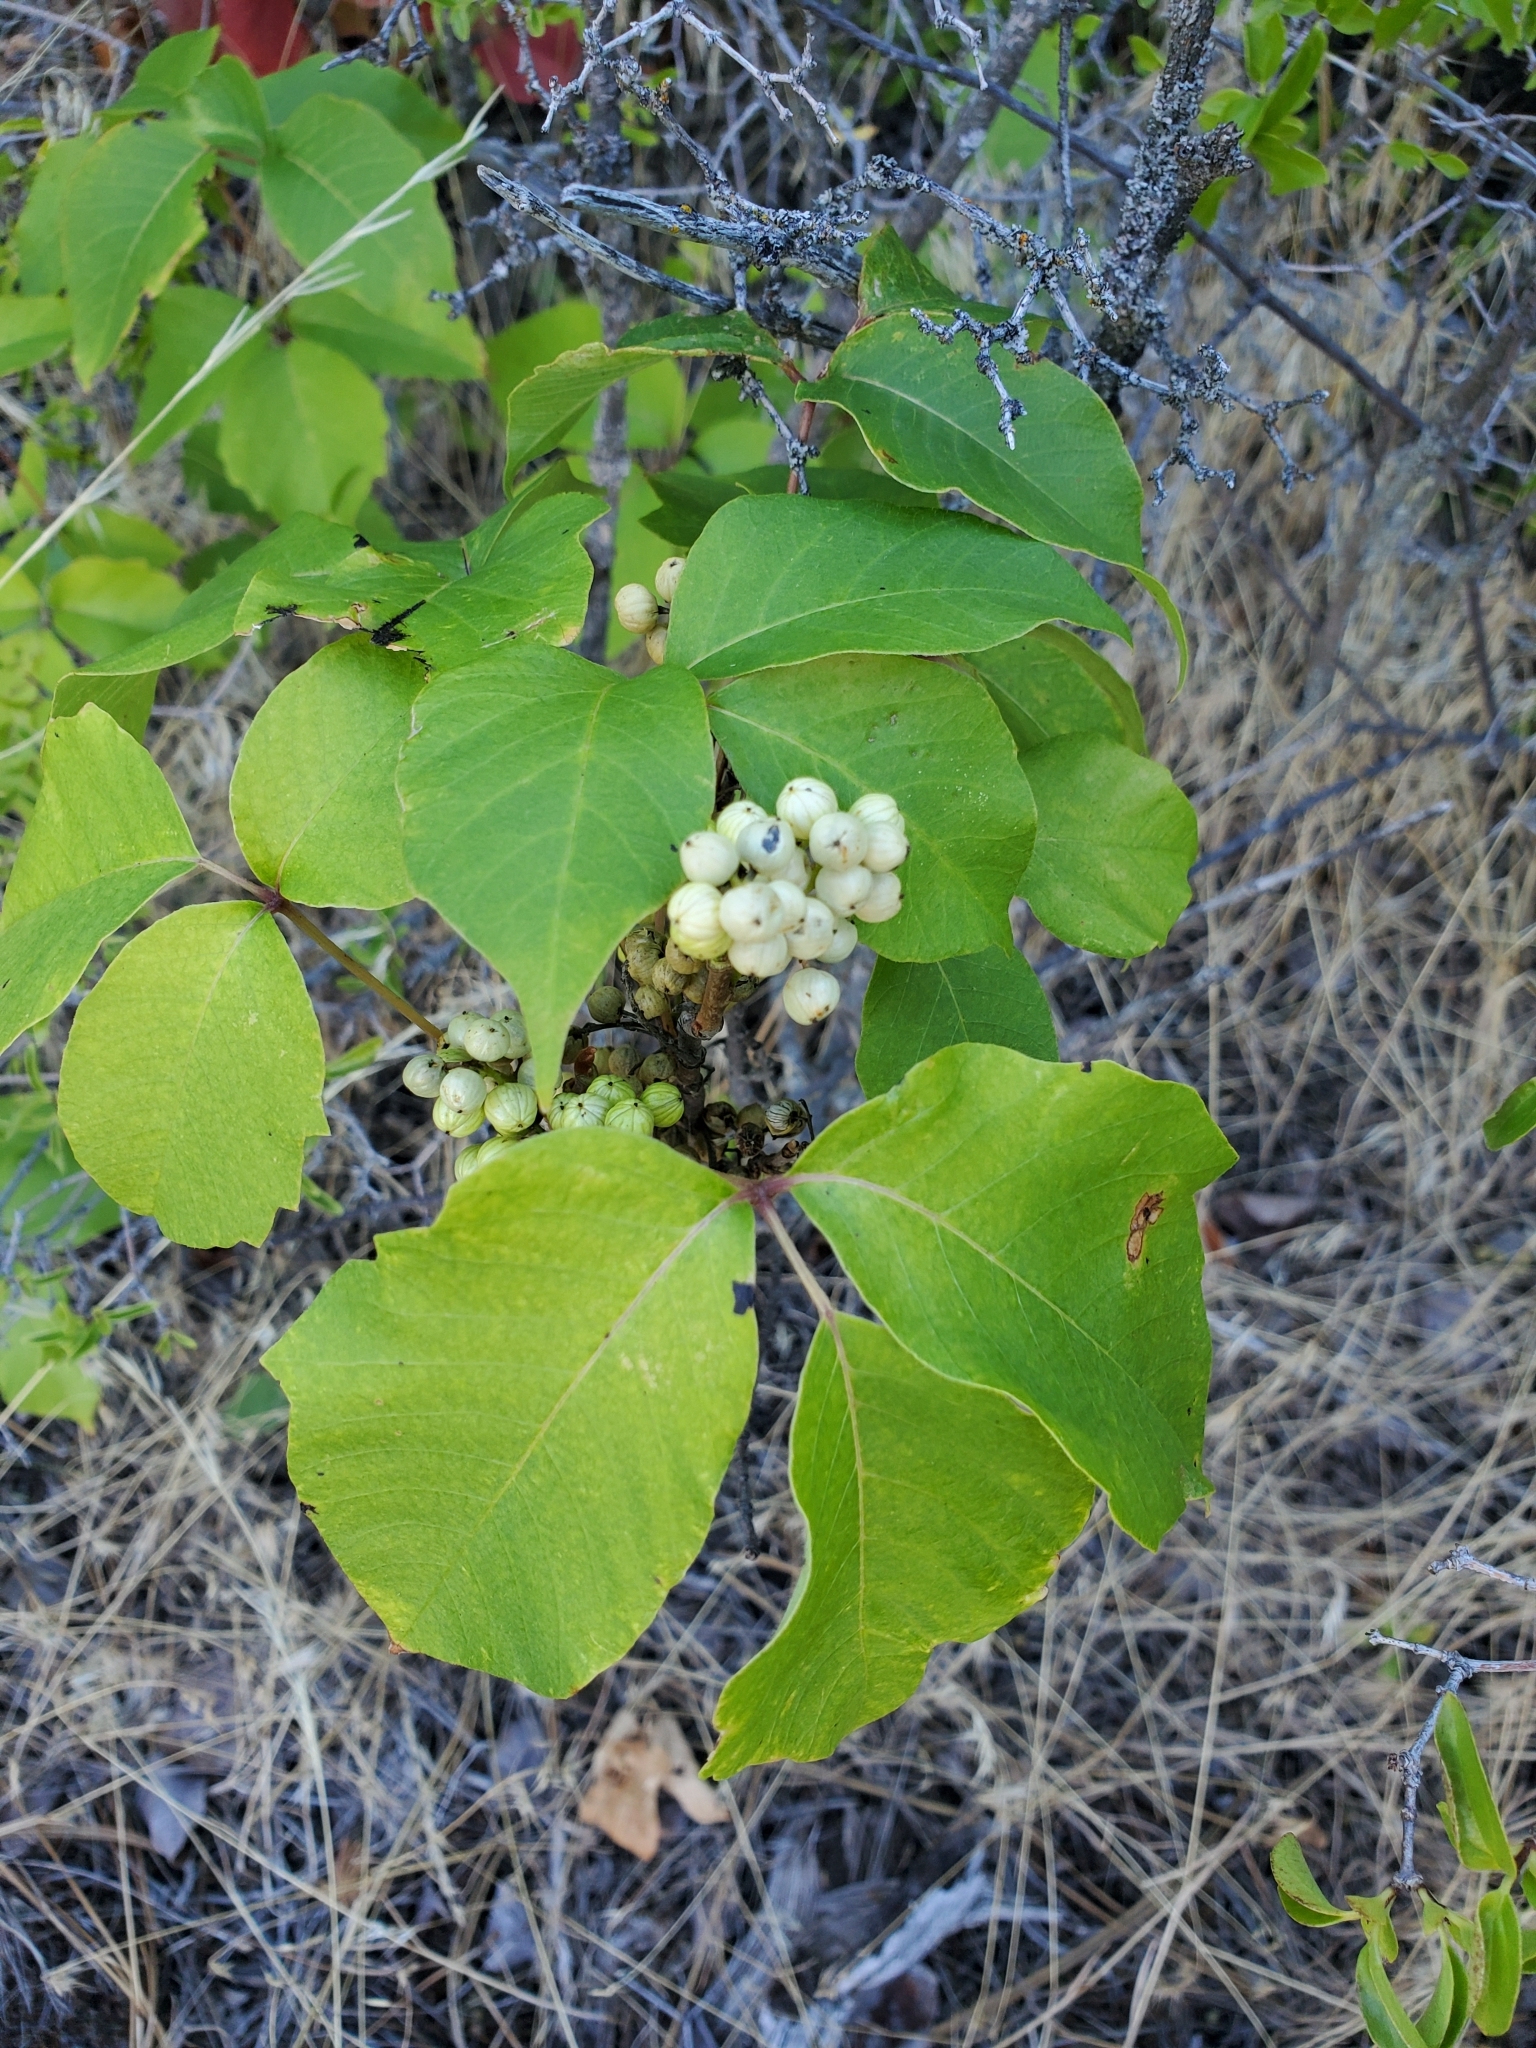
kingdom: Plantae
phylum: Tracheophyta
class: Magnoliopsida
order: Sapindales
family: Anacardiaceae
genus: Toxicodendron
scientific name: Toxicodendron rydbergii
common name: Rydberg's poison-ivy
